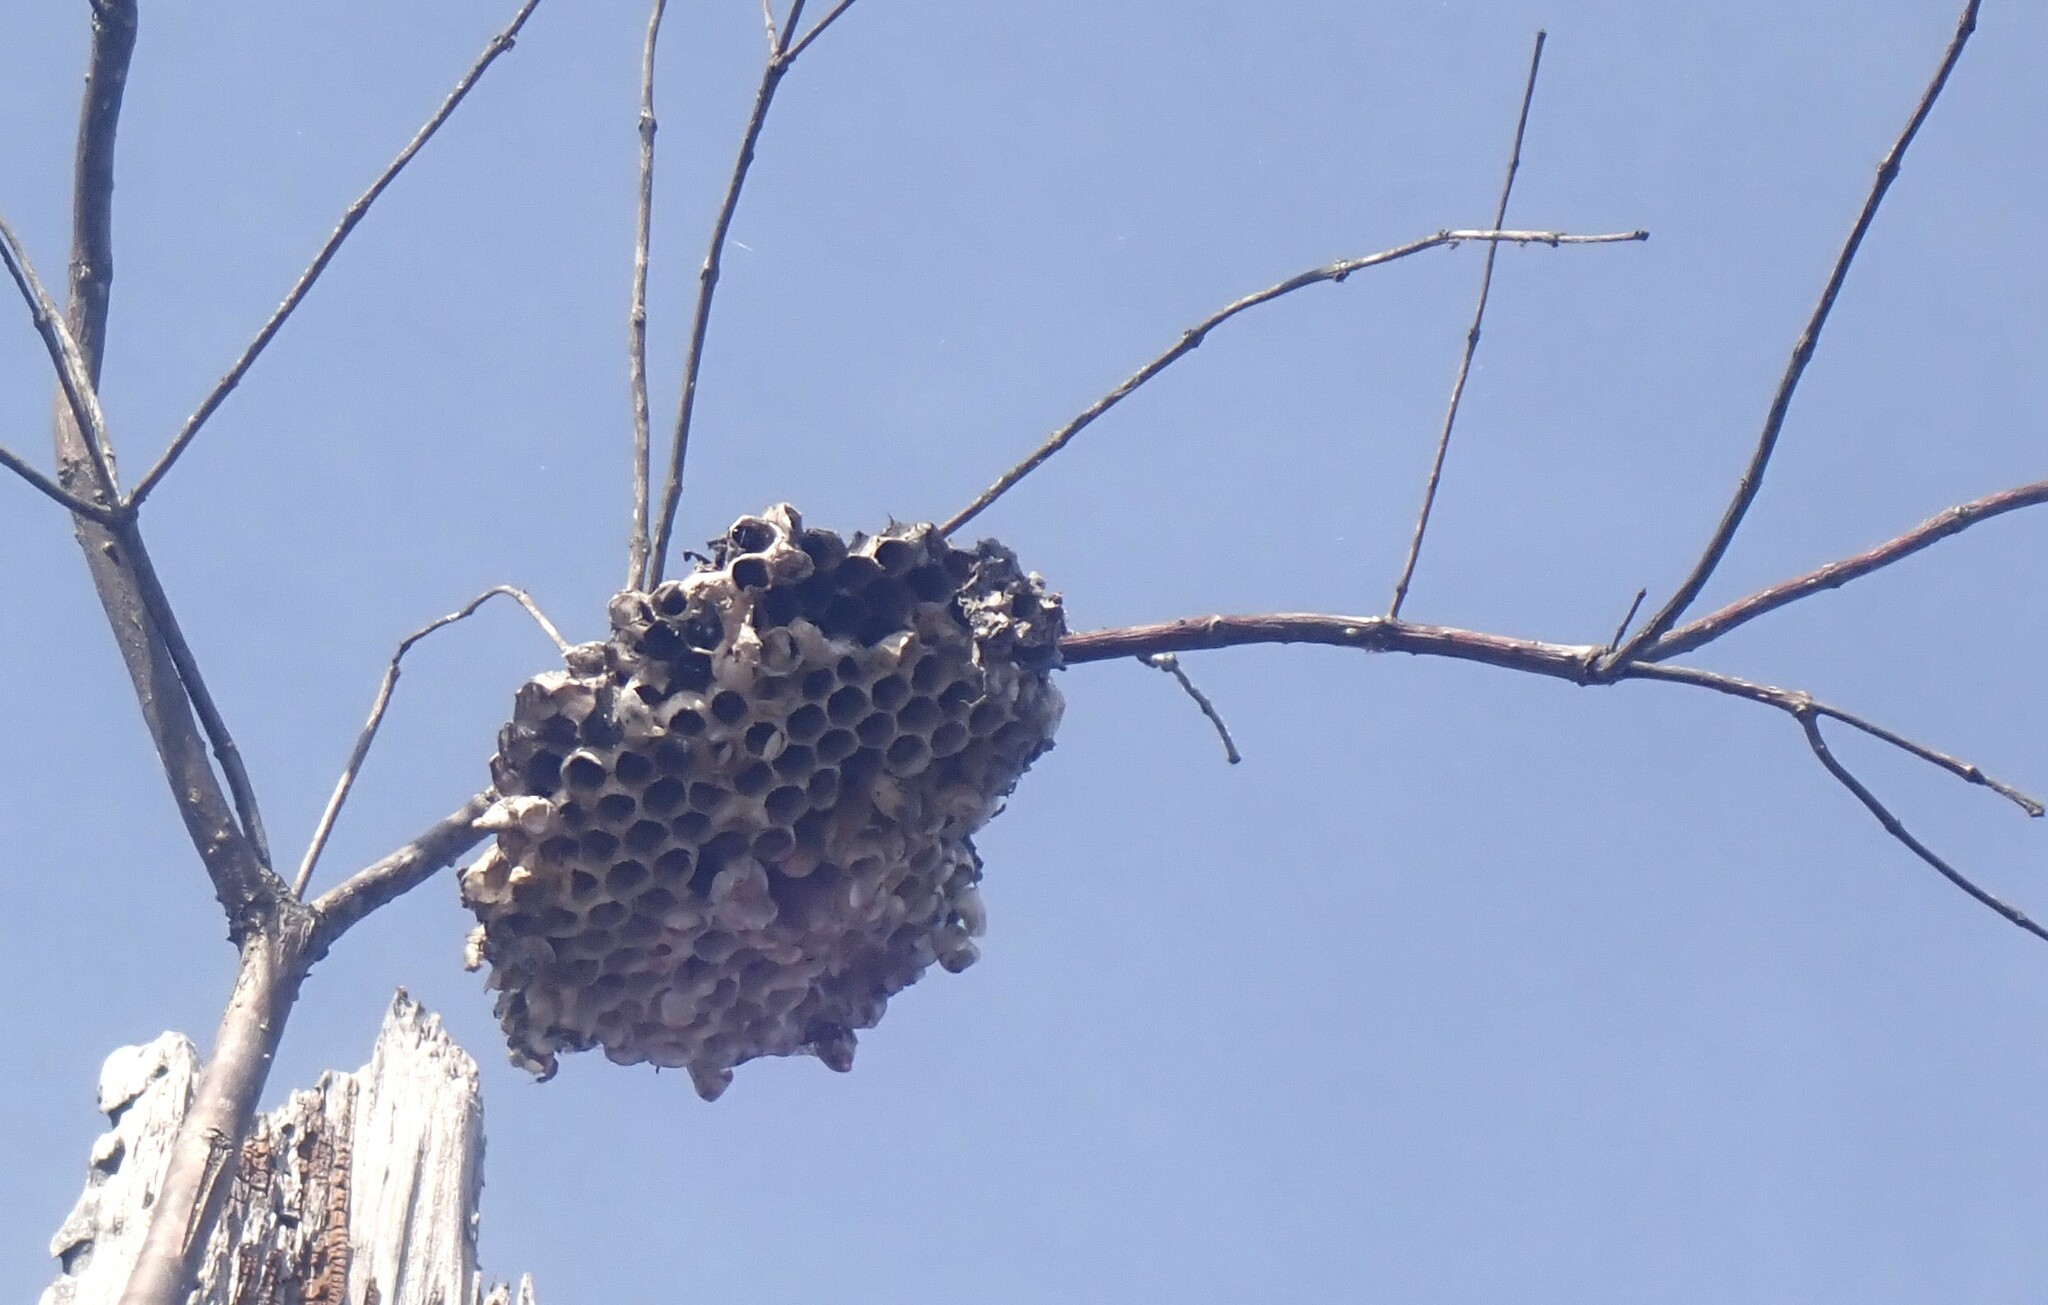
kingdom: Animalia
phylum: Arthropoda
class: Insecta
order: Hymenoptera
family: Eumenidae
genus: Polistes
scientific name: Polistes
